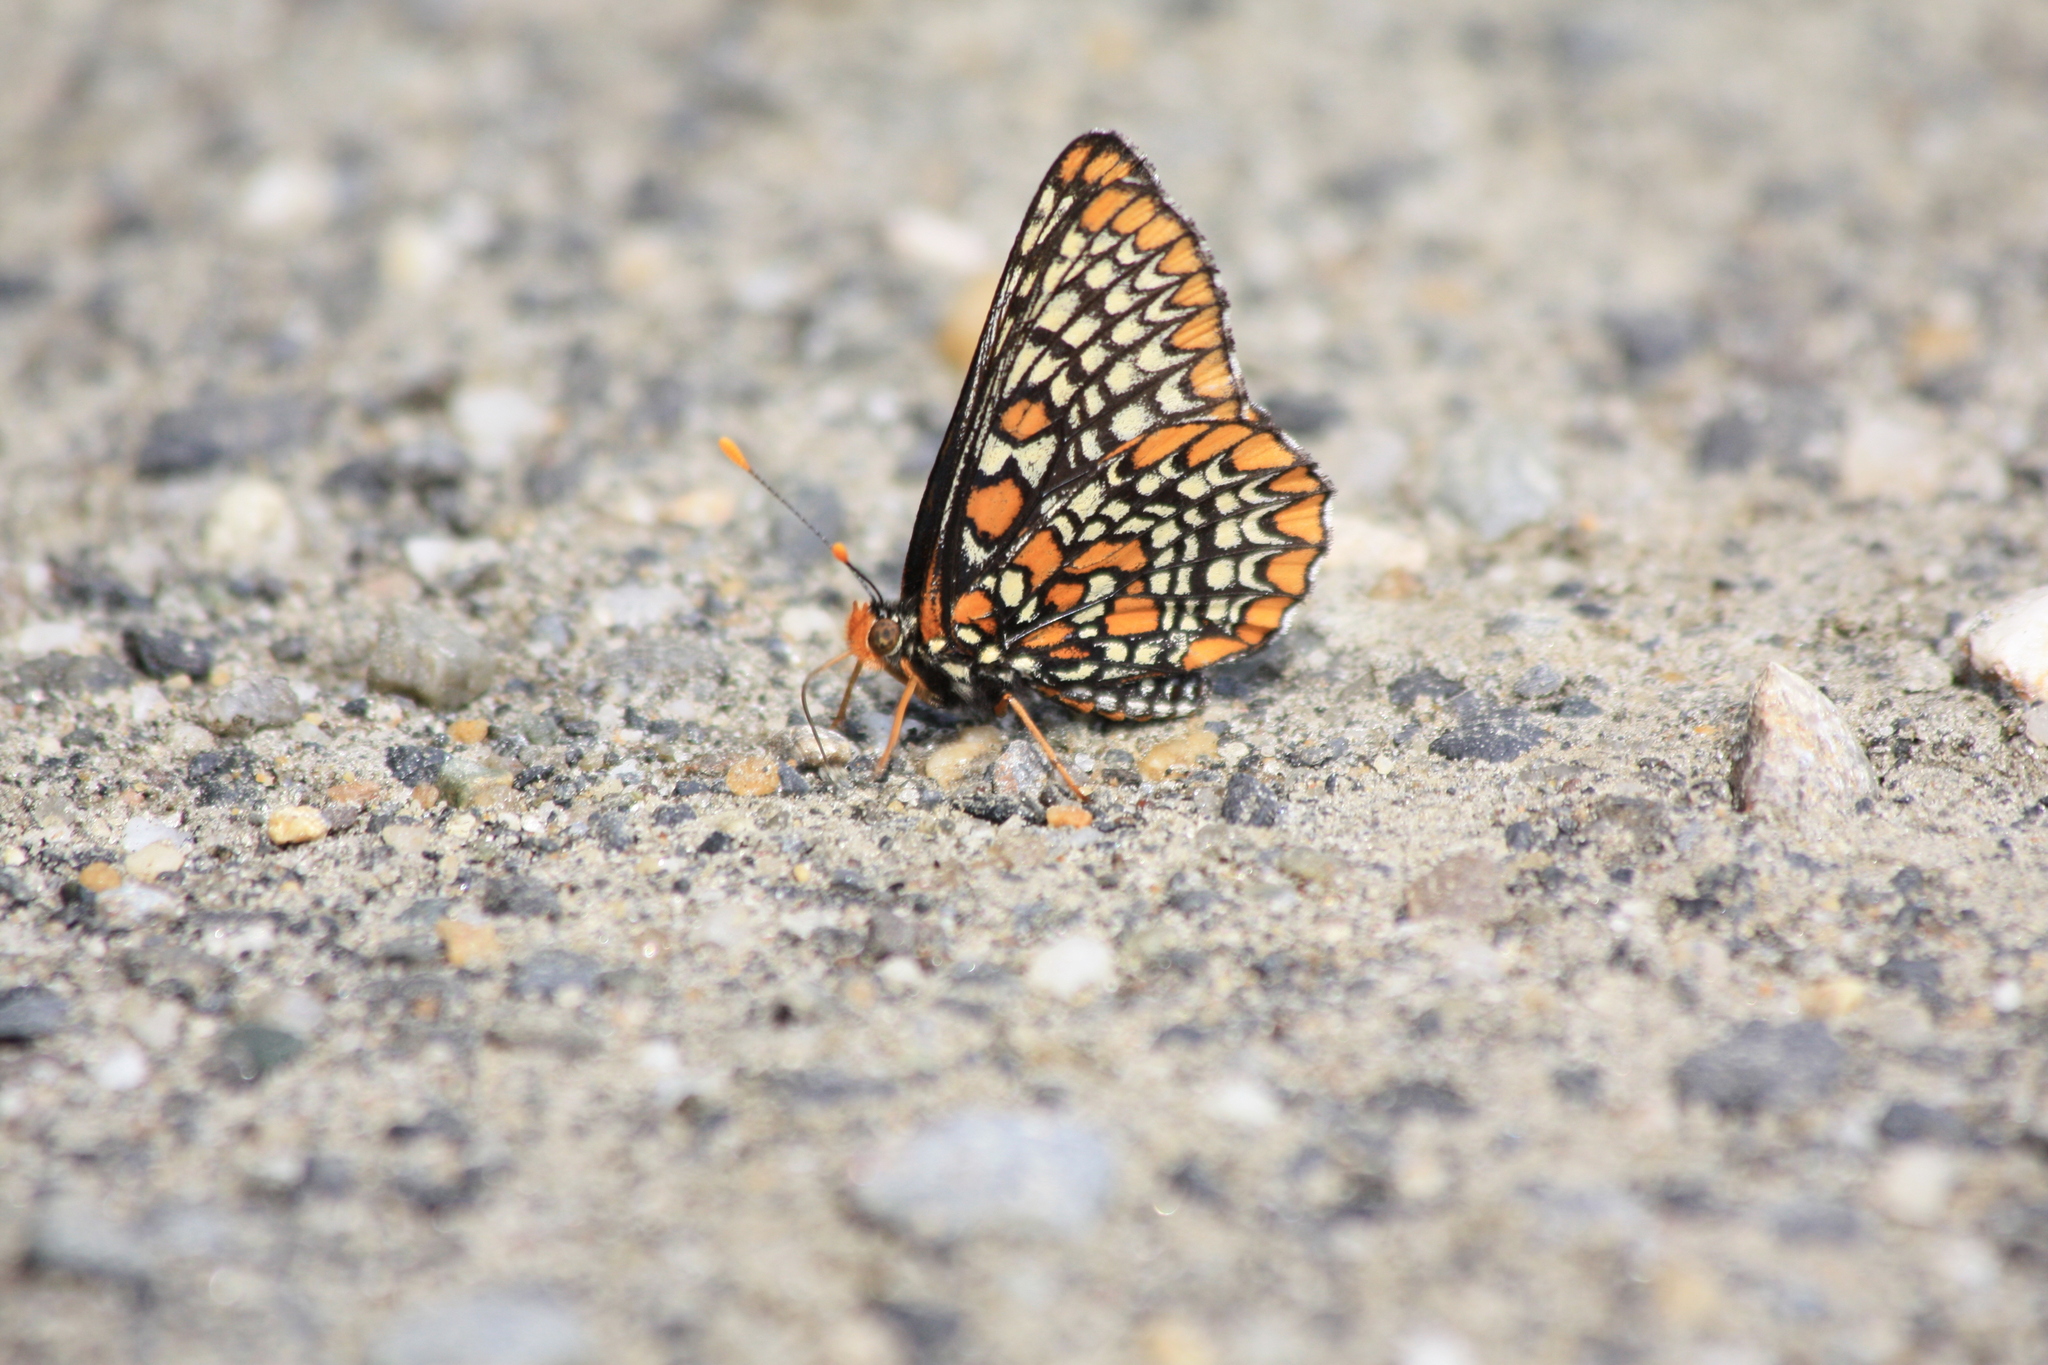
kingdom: Animalia
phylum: Arthropoda
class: Insecta
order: Lepidoptera
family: Nymphalidae
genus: Euphydryas
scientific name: Euphydryas phaeton
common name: Baltimore checkerspot
